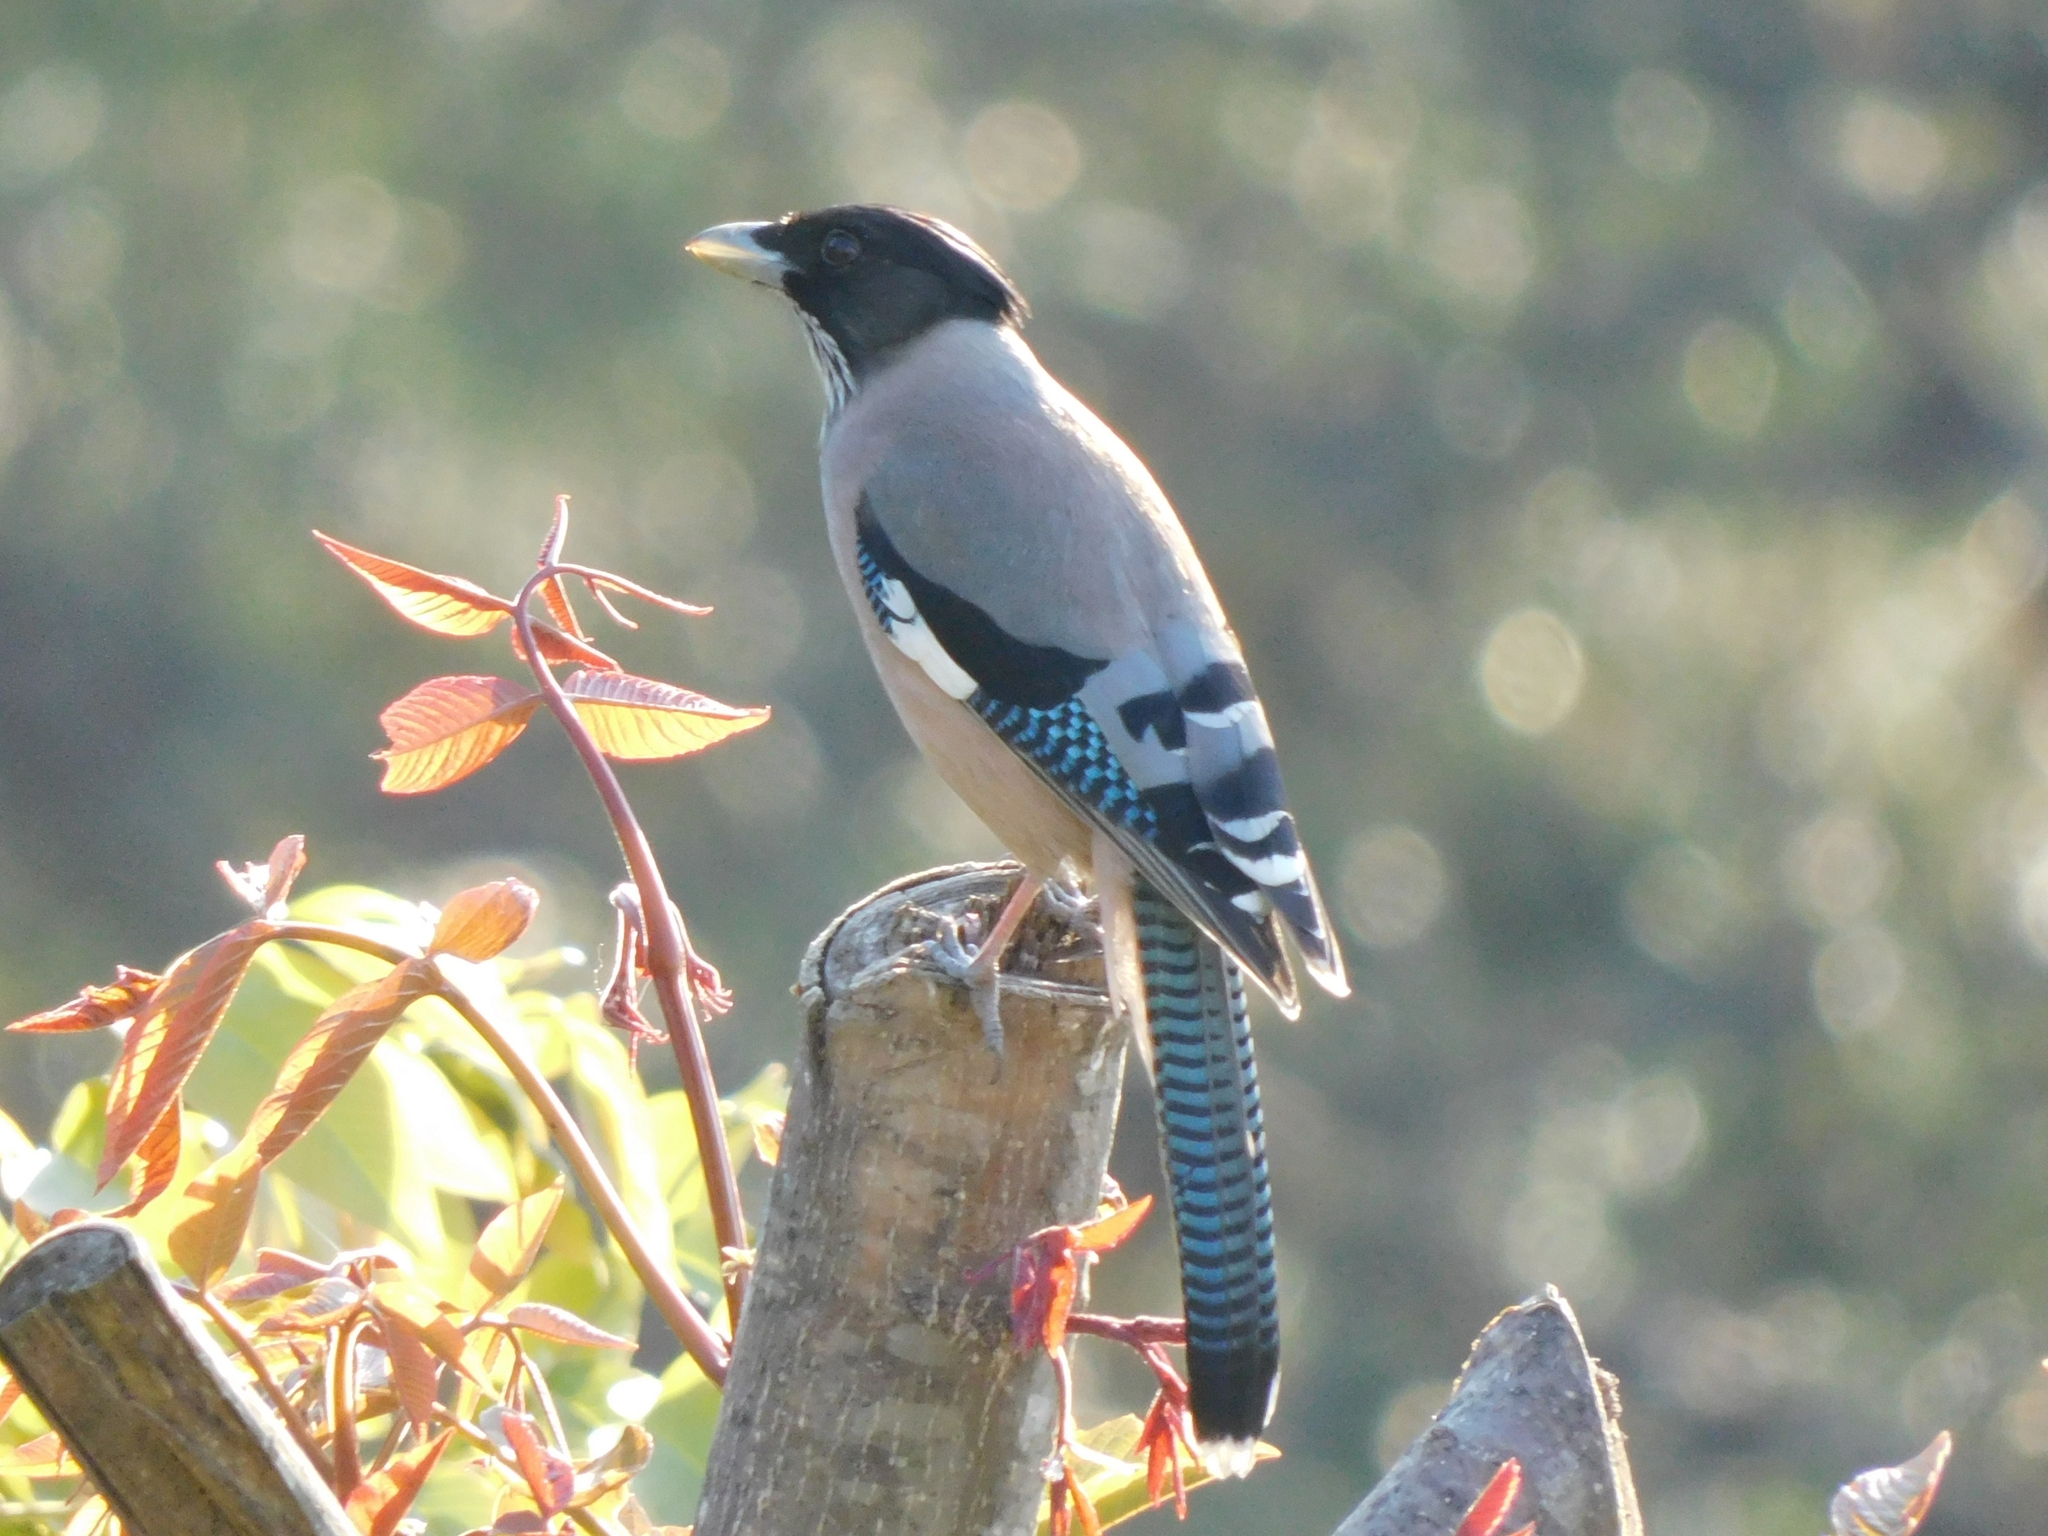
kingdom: Animalia
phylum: Chordata
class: Aves
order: Passeriformes
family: Corvidae
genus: Garrulus
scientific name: Garrulus lanceolatus
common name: Black-headed jay
